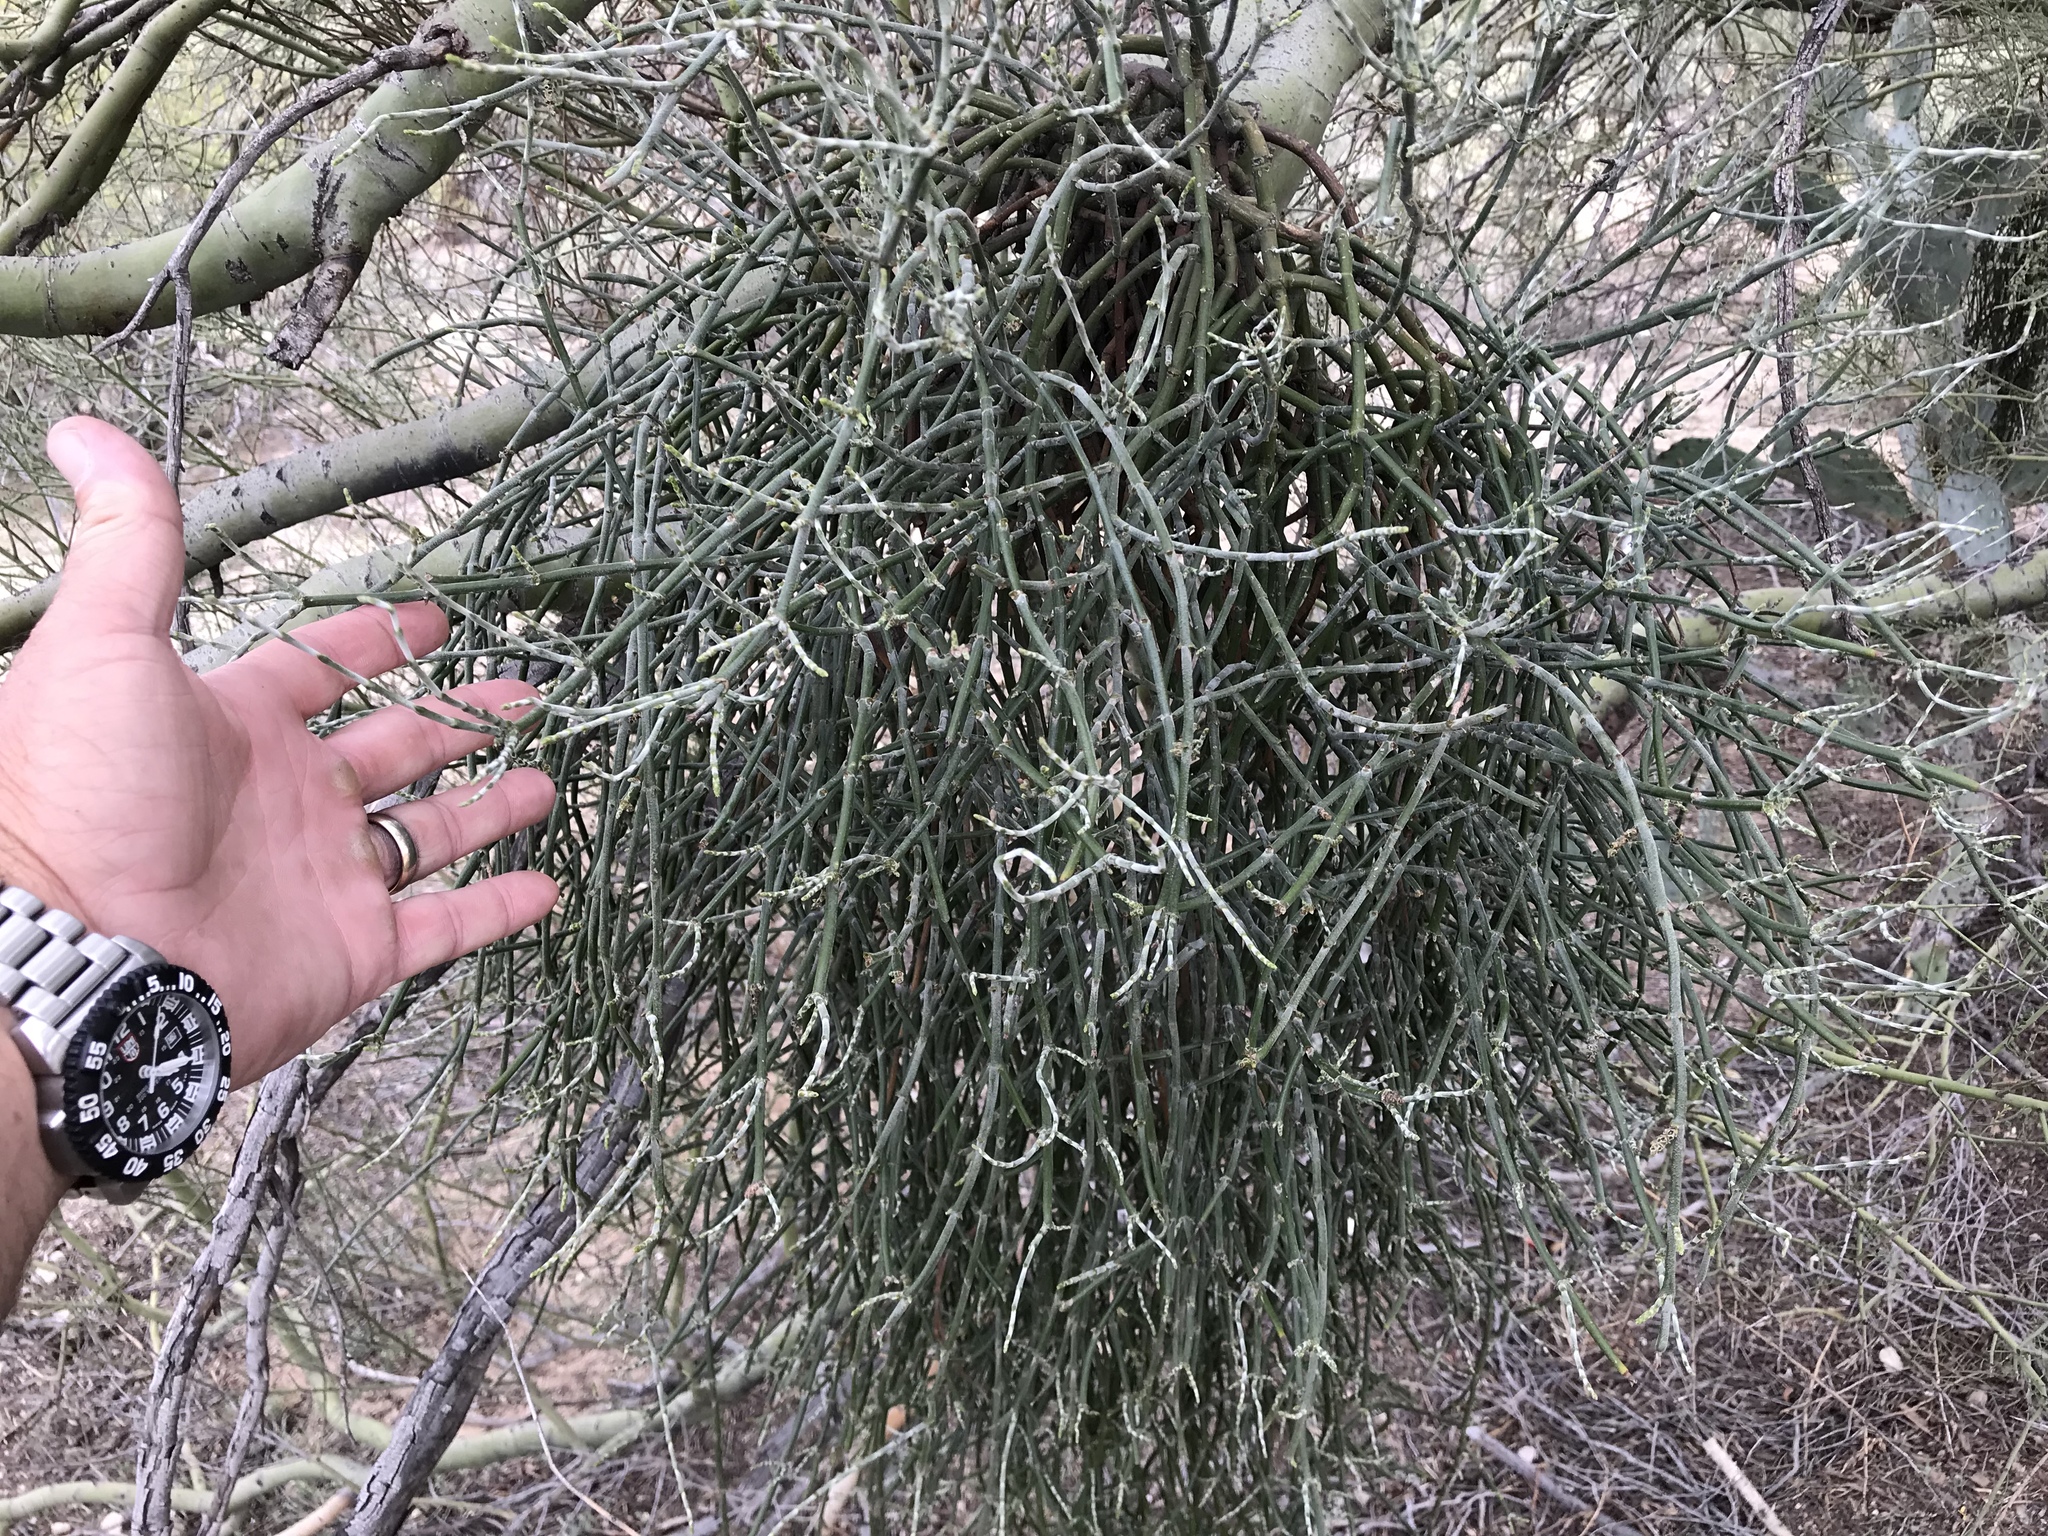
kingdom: Plantae
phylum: Tracheophyta
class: Magnoliopsida
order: Santalales
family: Viscaceae
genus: Phoradendron
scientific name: Phoradendron californicum
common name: Acacia mistletoe
